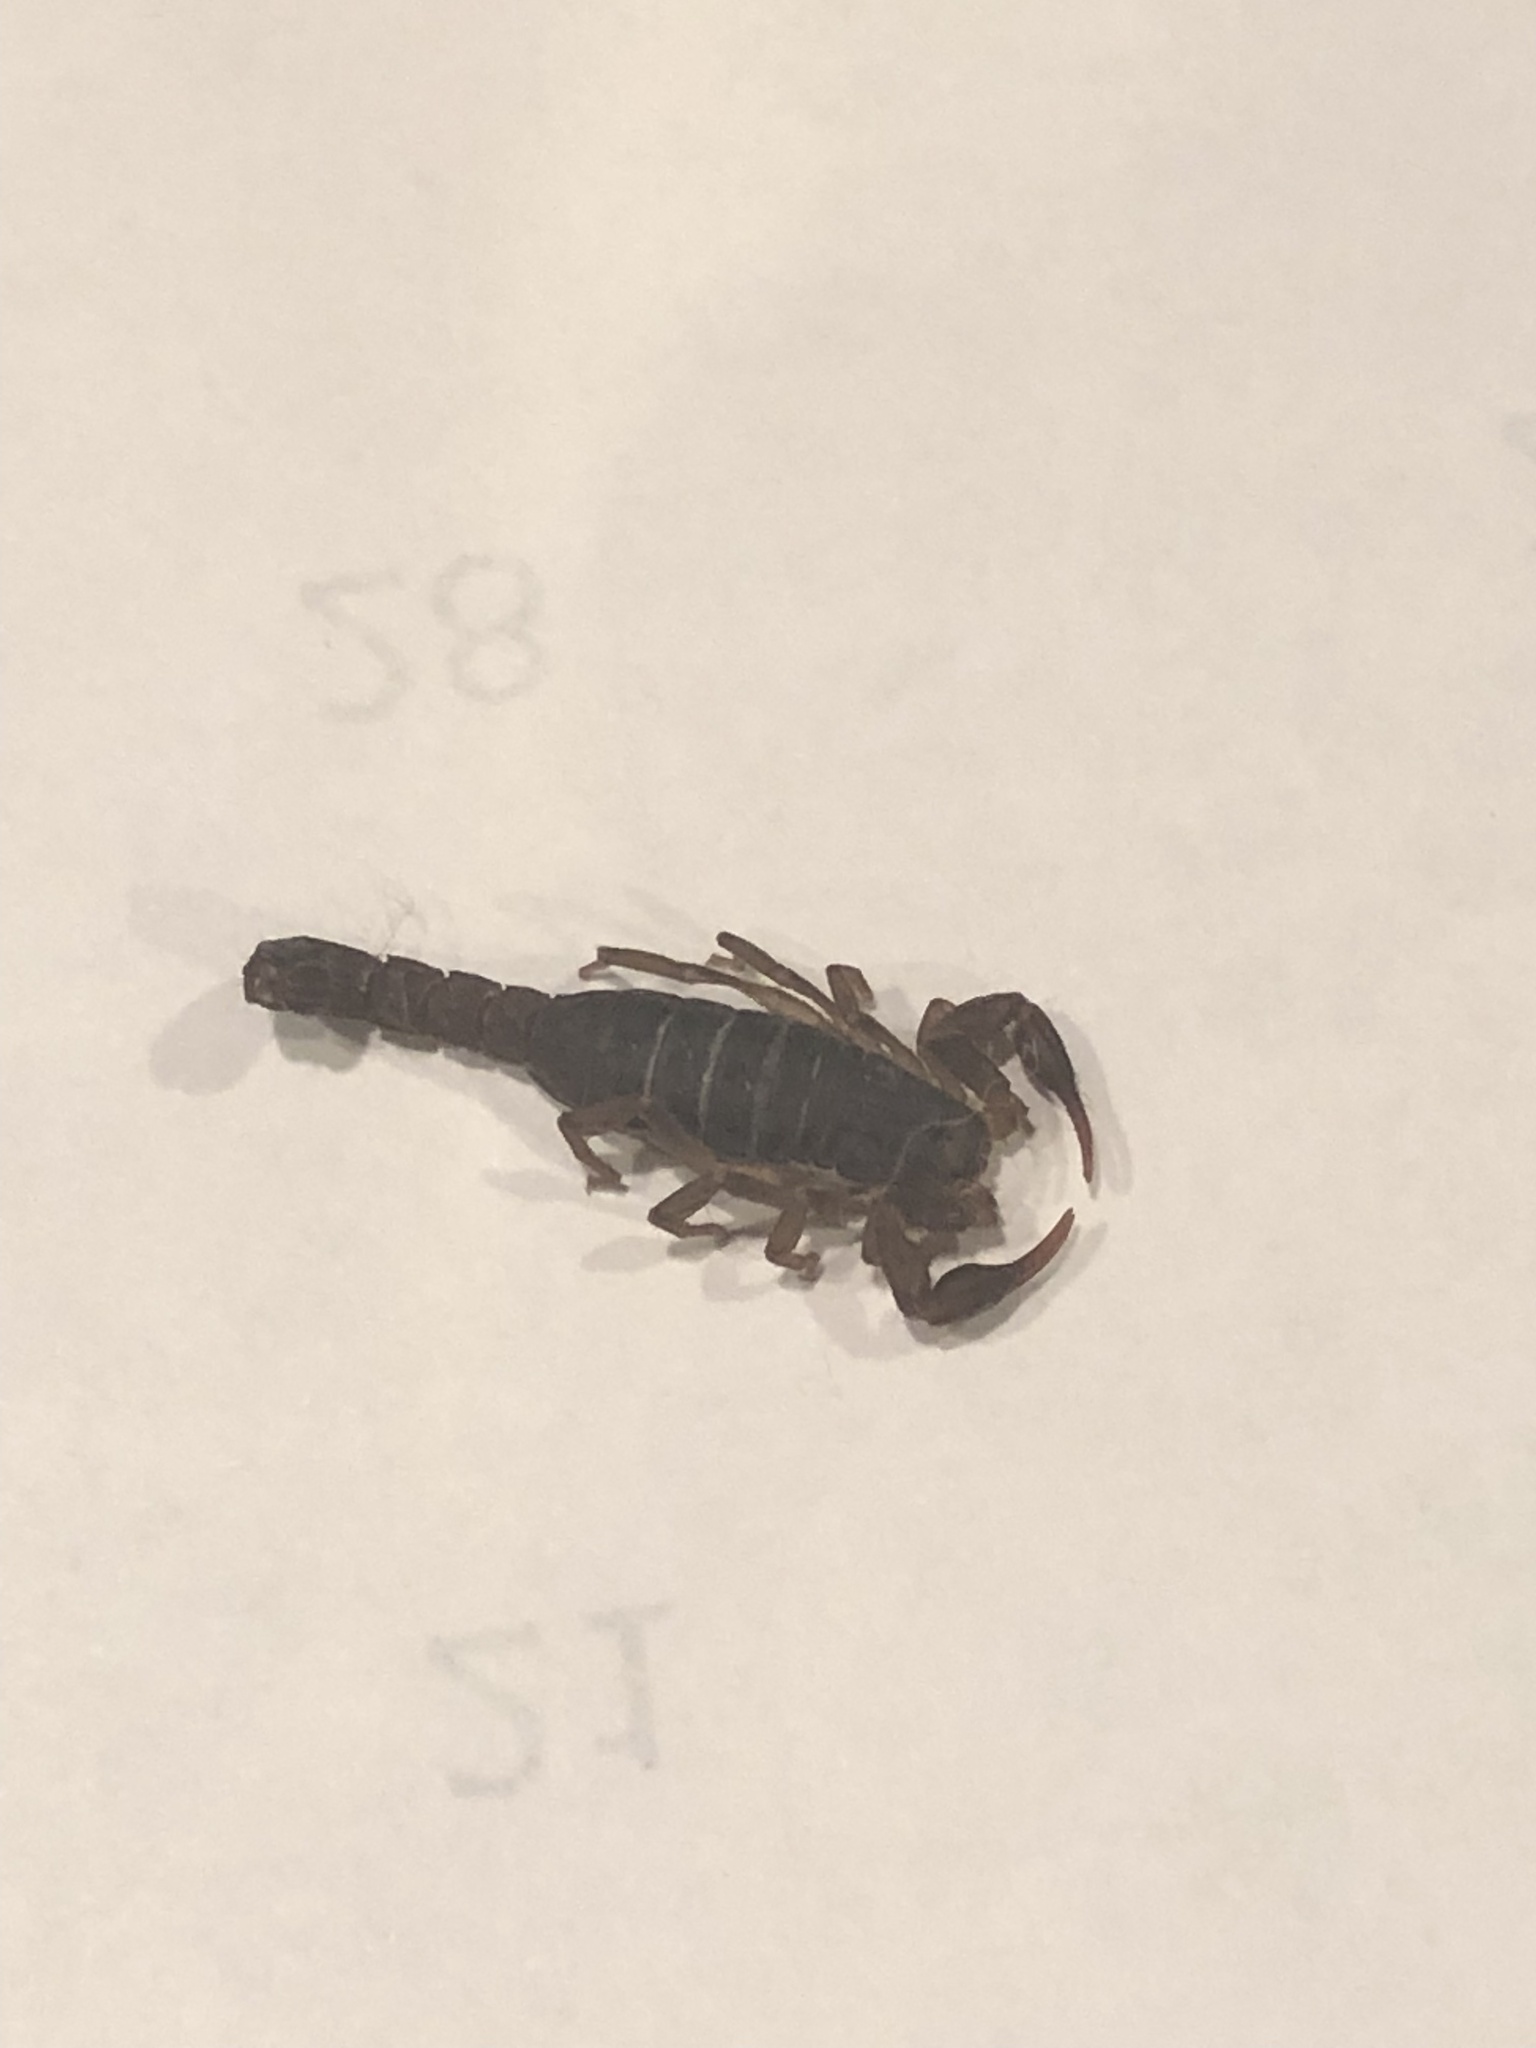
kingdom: Animalia
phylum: Arthropoda
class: Arachnida
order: Scorpiones
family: Vaejovidae
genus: Vaejovis
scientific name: Vaejovis carolinianus
